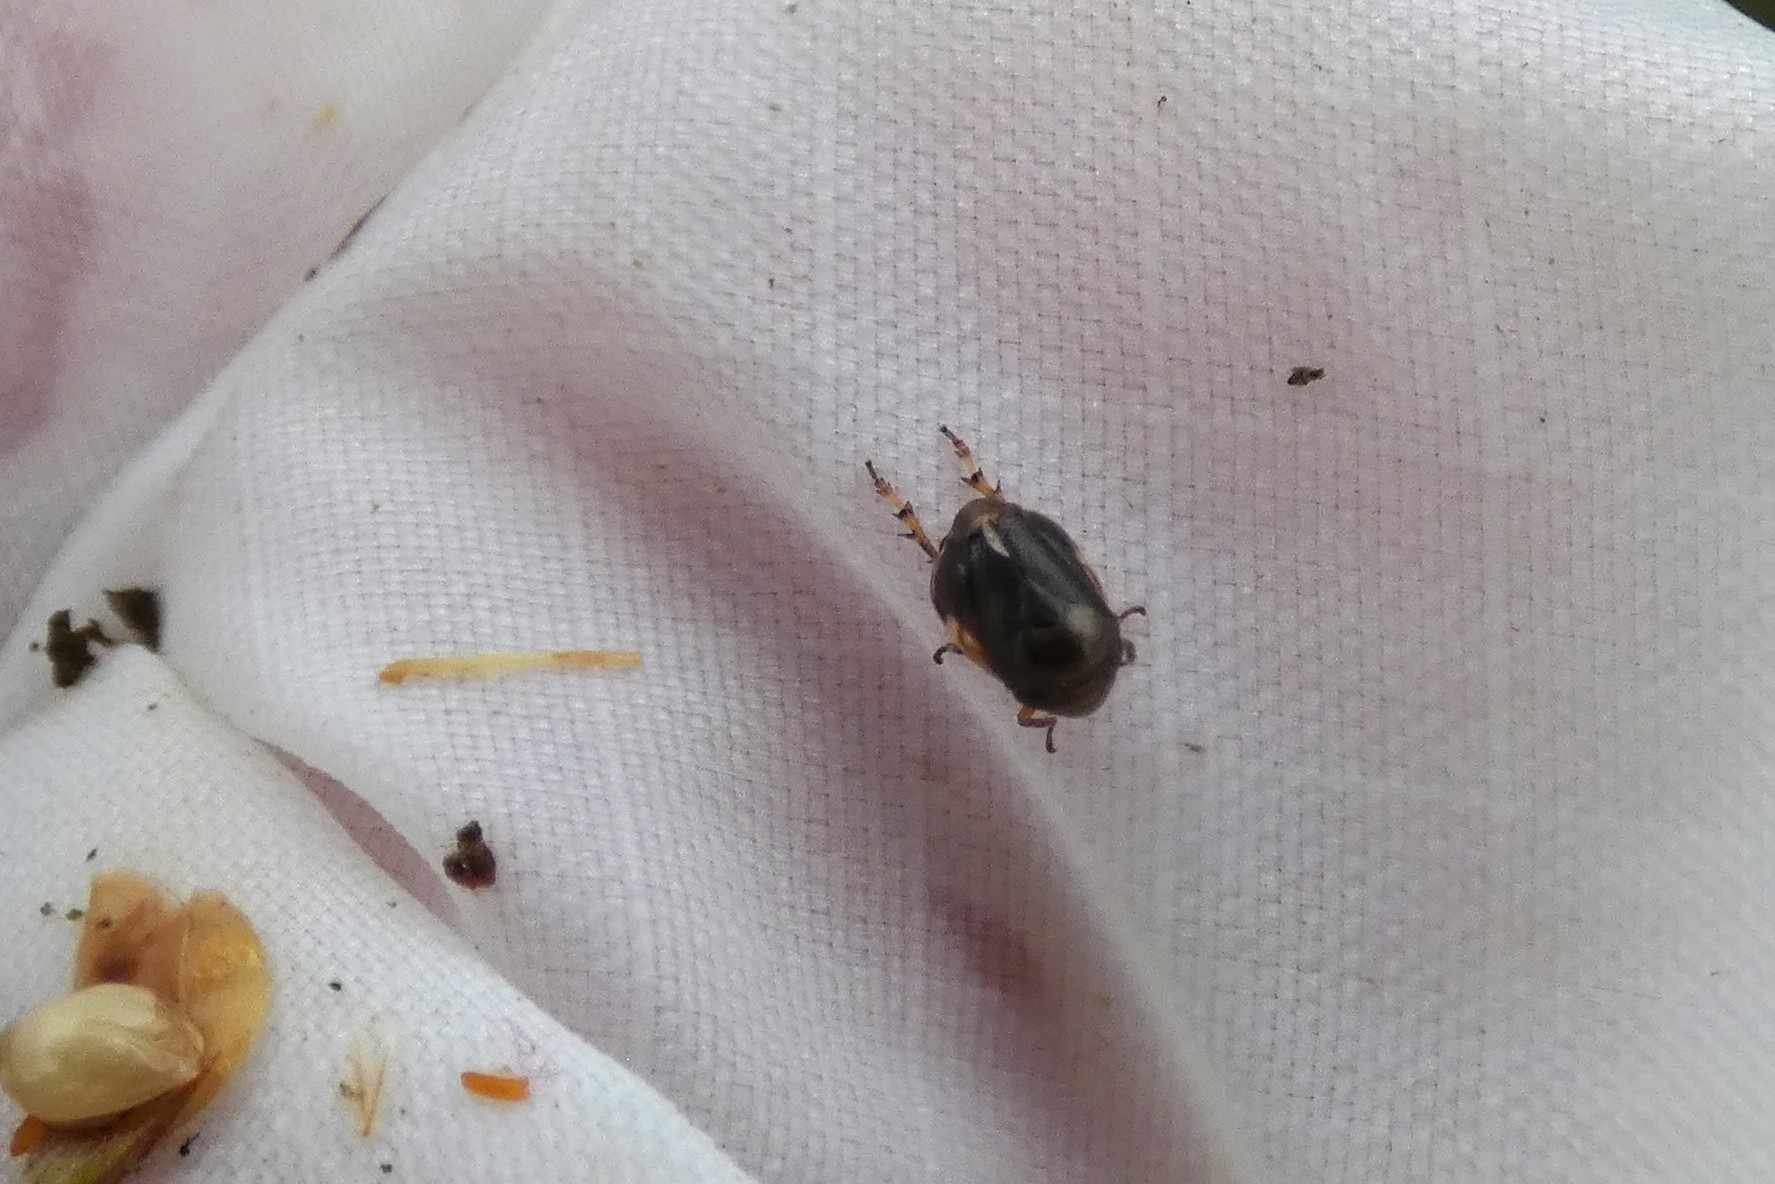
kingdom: Animalia
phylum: Arthropoda
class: Insecta
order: Hemiptera
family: Clastopteridae
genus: Clastoptera
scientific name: Clastoptera xanthocephala
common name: Sunflower spittlebug
